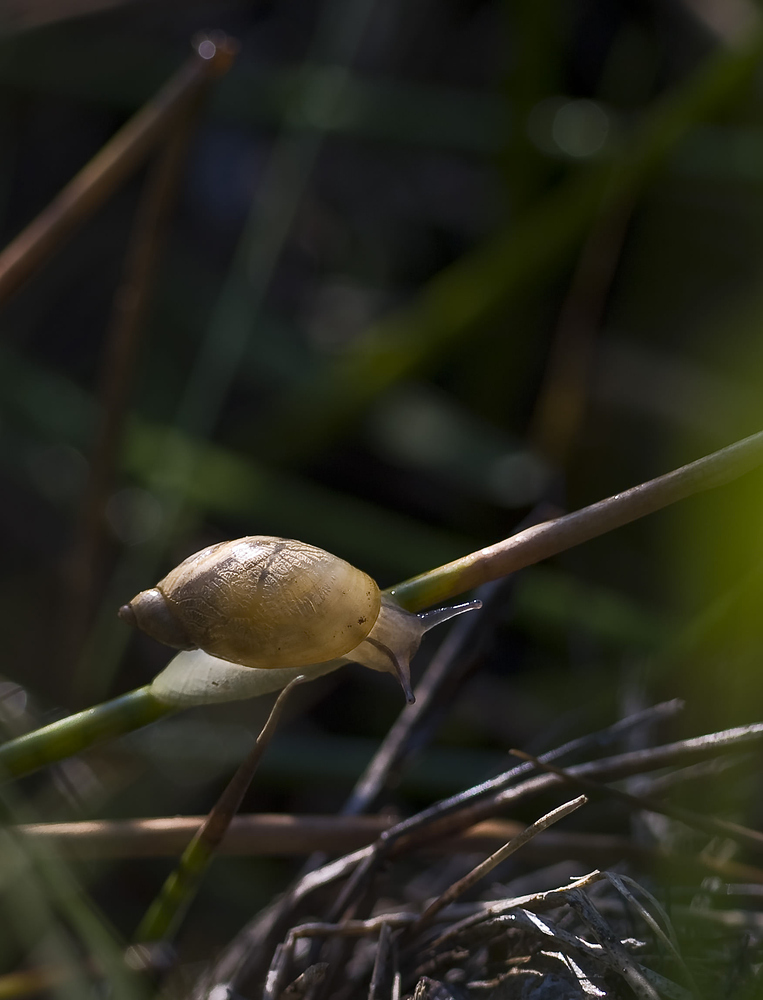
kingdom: Animalia
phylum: Mollusca
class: Gastropoda
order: Stylommatophora
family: Succineidae
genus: Succinea
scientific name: Succinea putris
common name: European ambersnail
